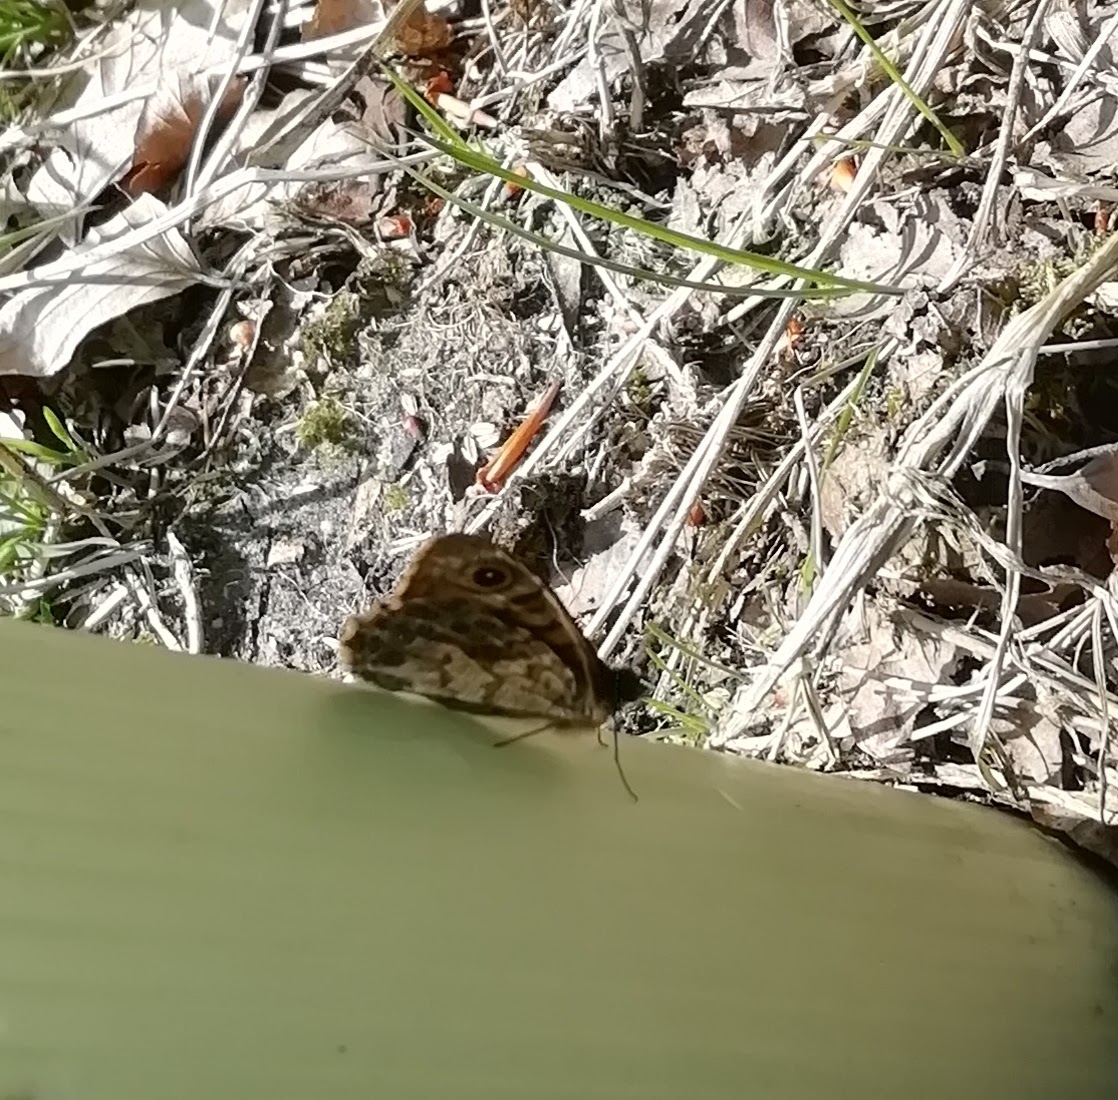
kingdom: Animalia
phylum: Arthropoda
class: Insecta
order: Lepidoptera
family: Nymphalidae
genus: Pararge
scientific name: Pararge Lasiommata megera
